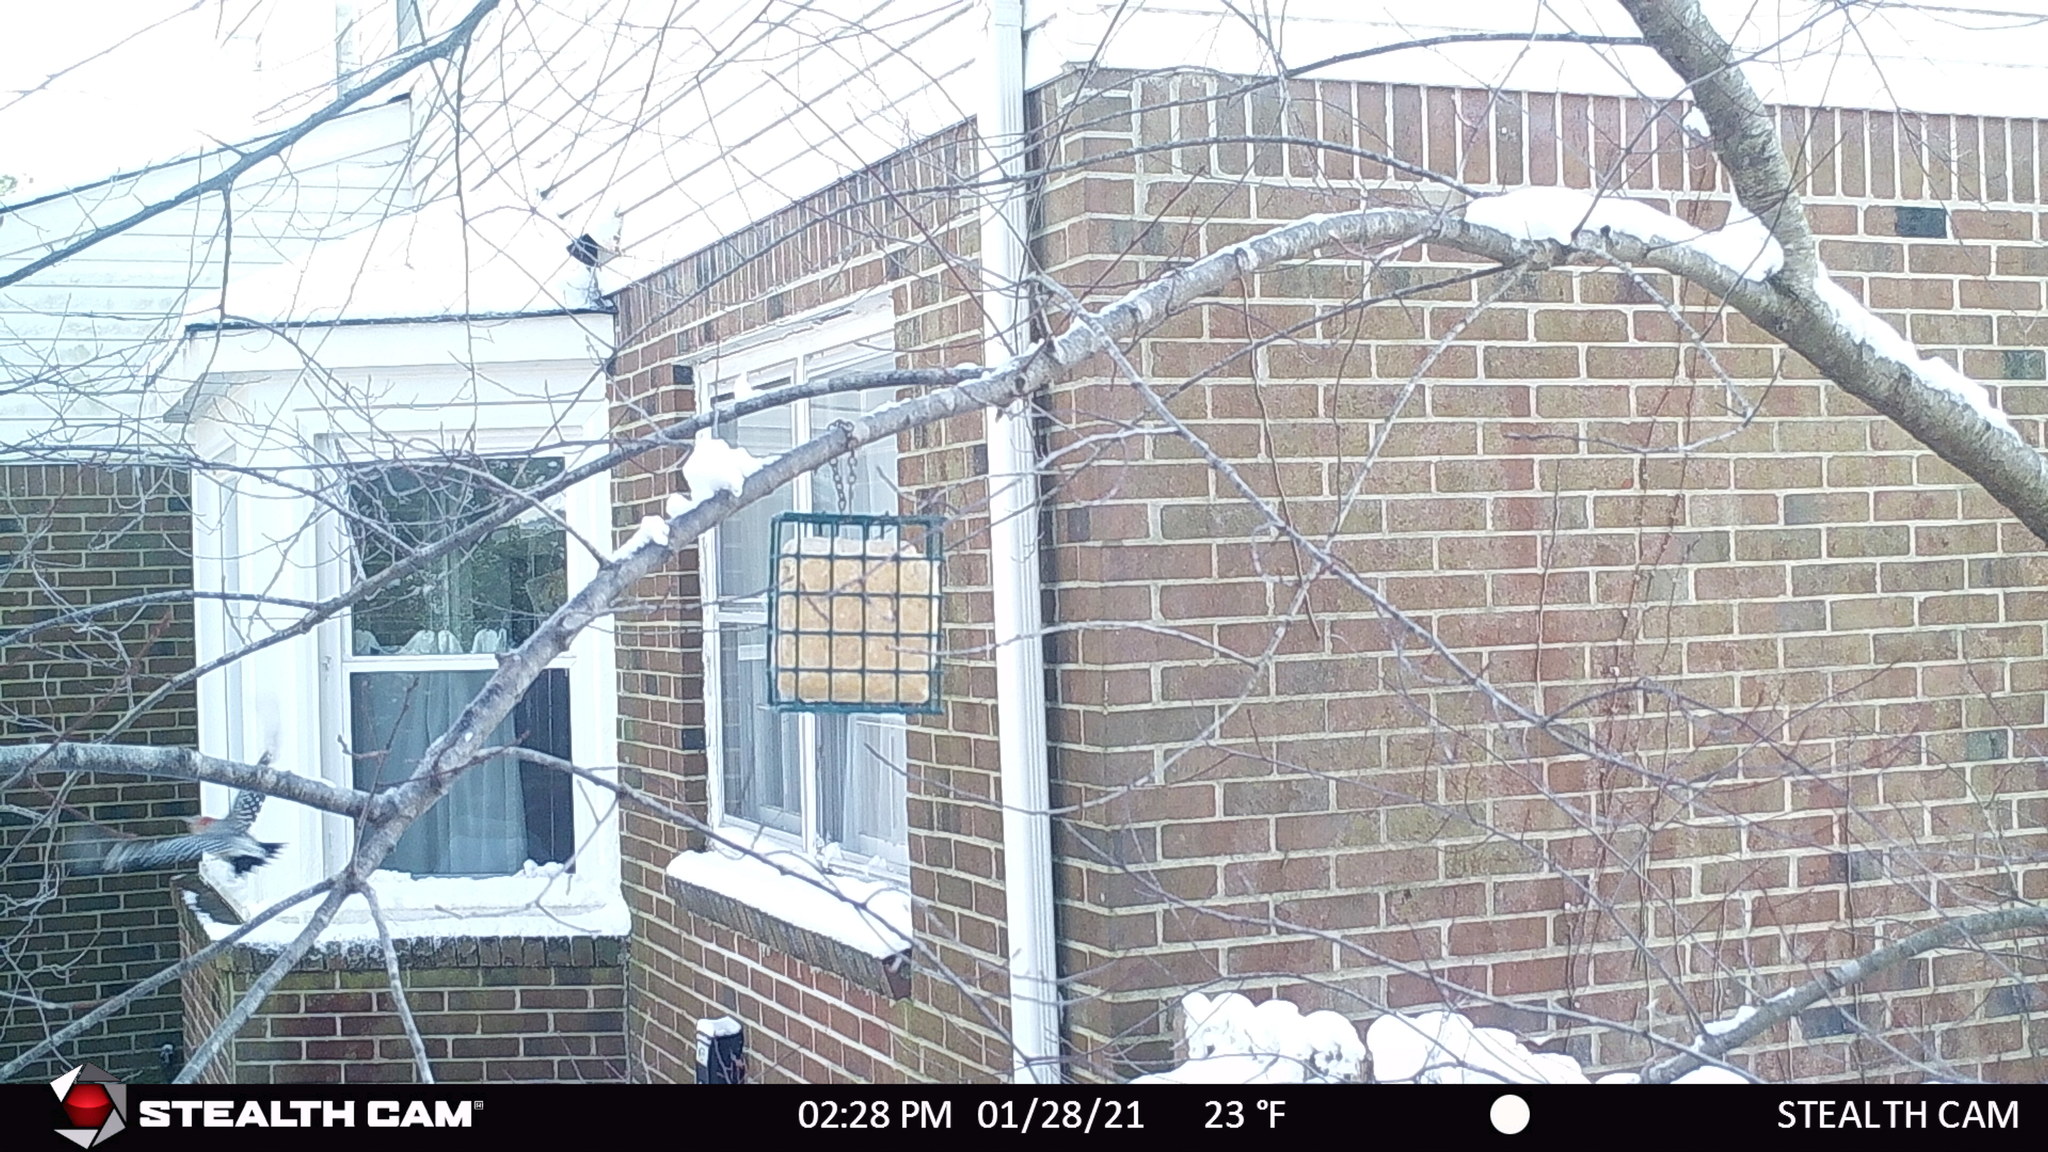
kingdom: Animalia
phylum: Chordata
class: Aves
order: Piciformes
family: Picidae
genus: Melanerpes
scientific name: Melanerpes carolinus
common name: Red-bellied woodpecker
